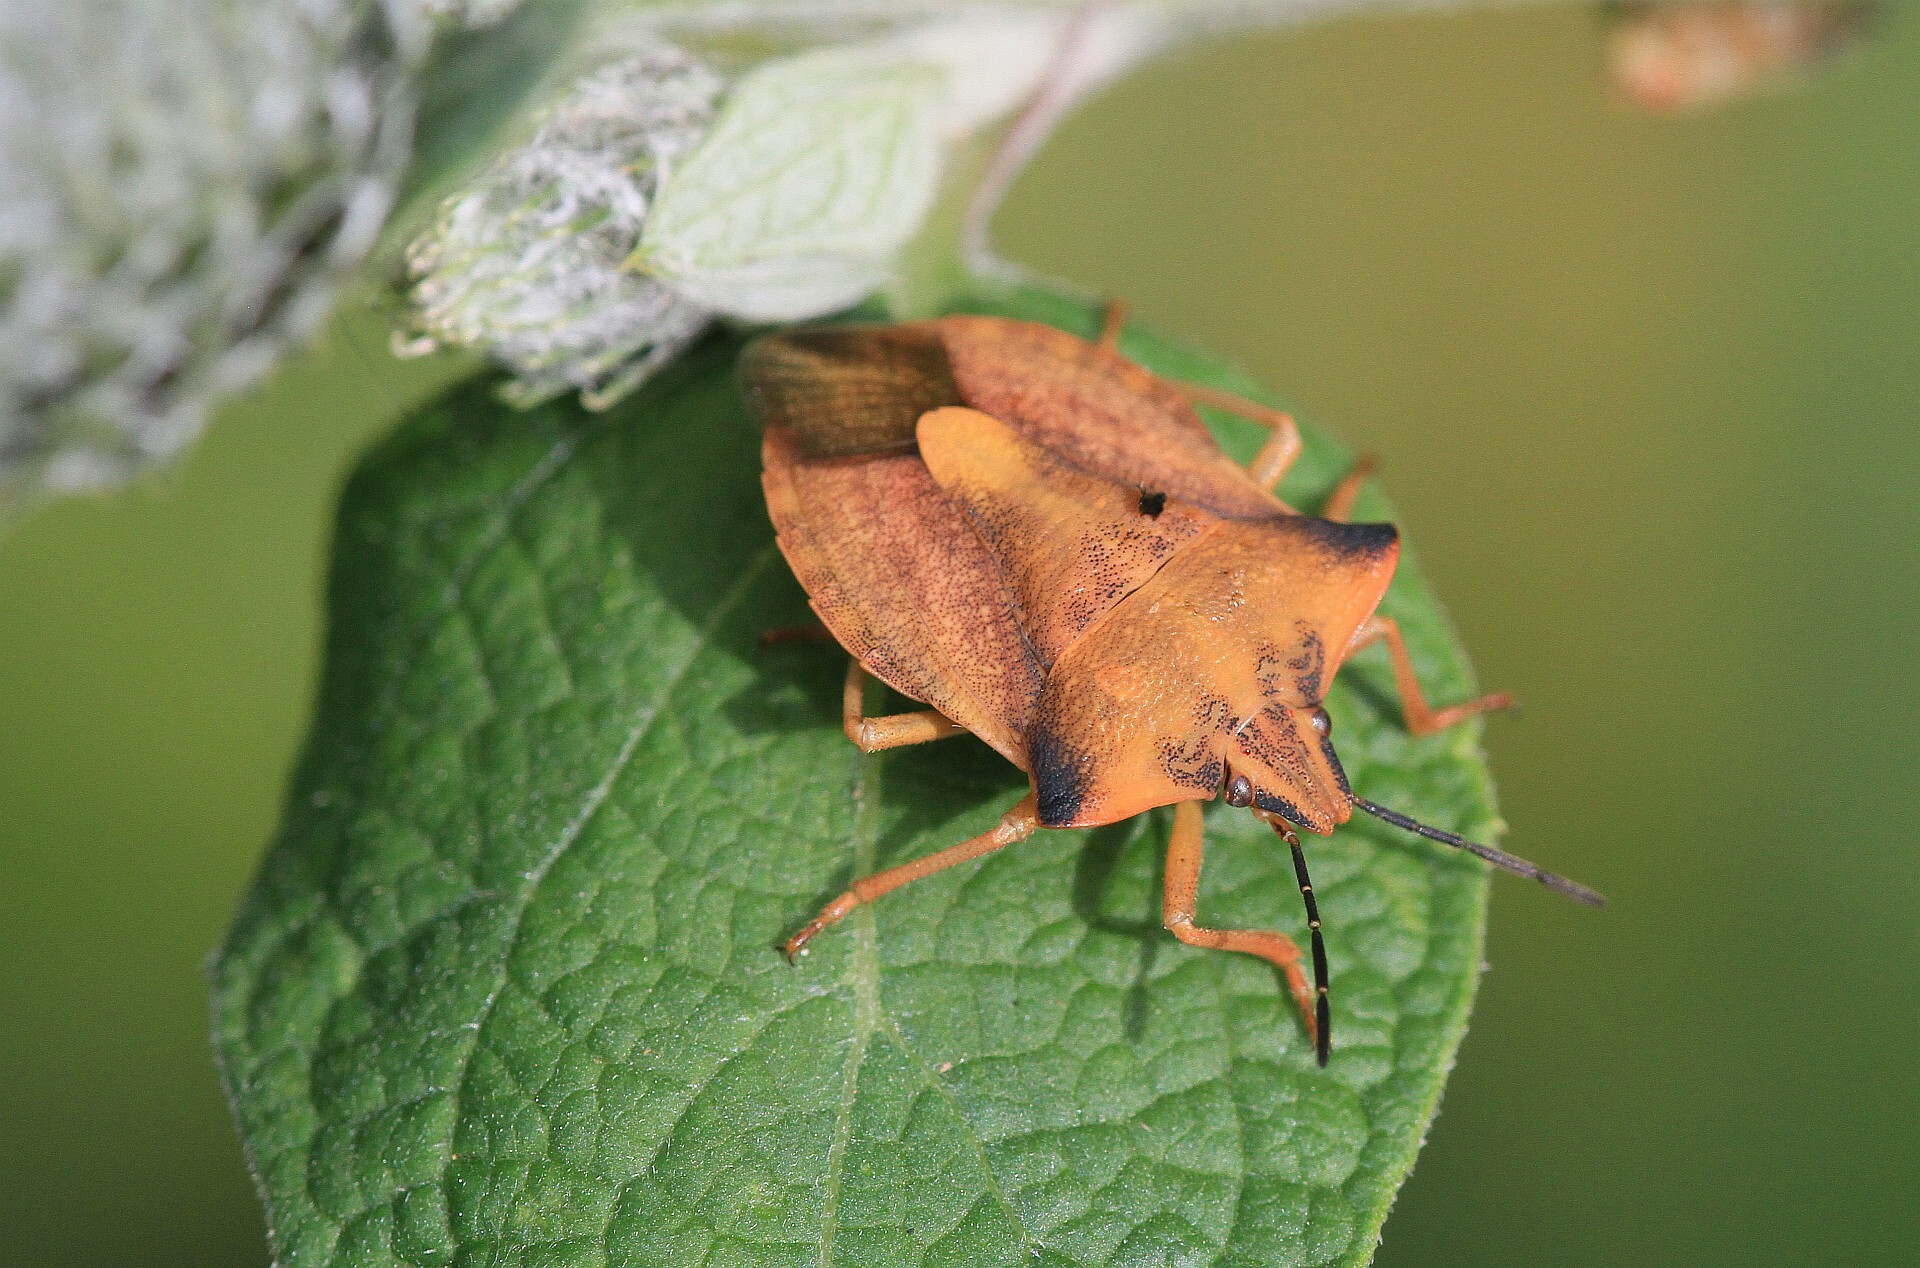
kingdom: Animalia
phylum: Arthropoda
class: Insecta
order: Hemiptera
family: Pentatomidae
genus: Carpocoris
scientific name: Carpocoris fuscispinus
